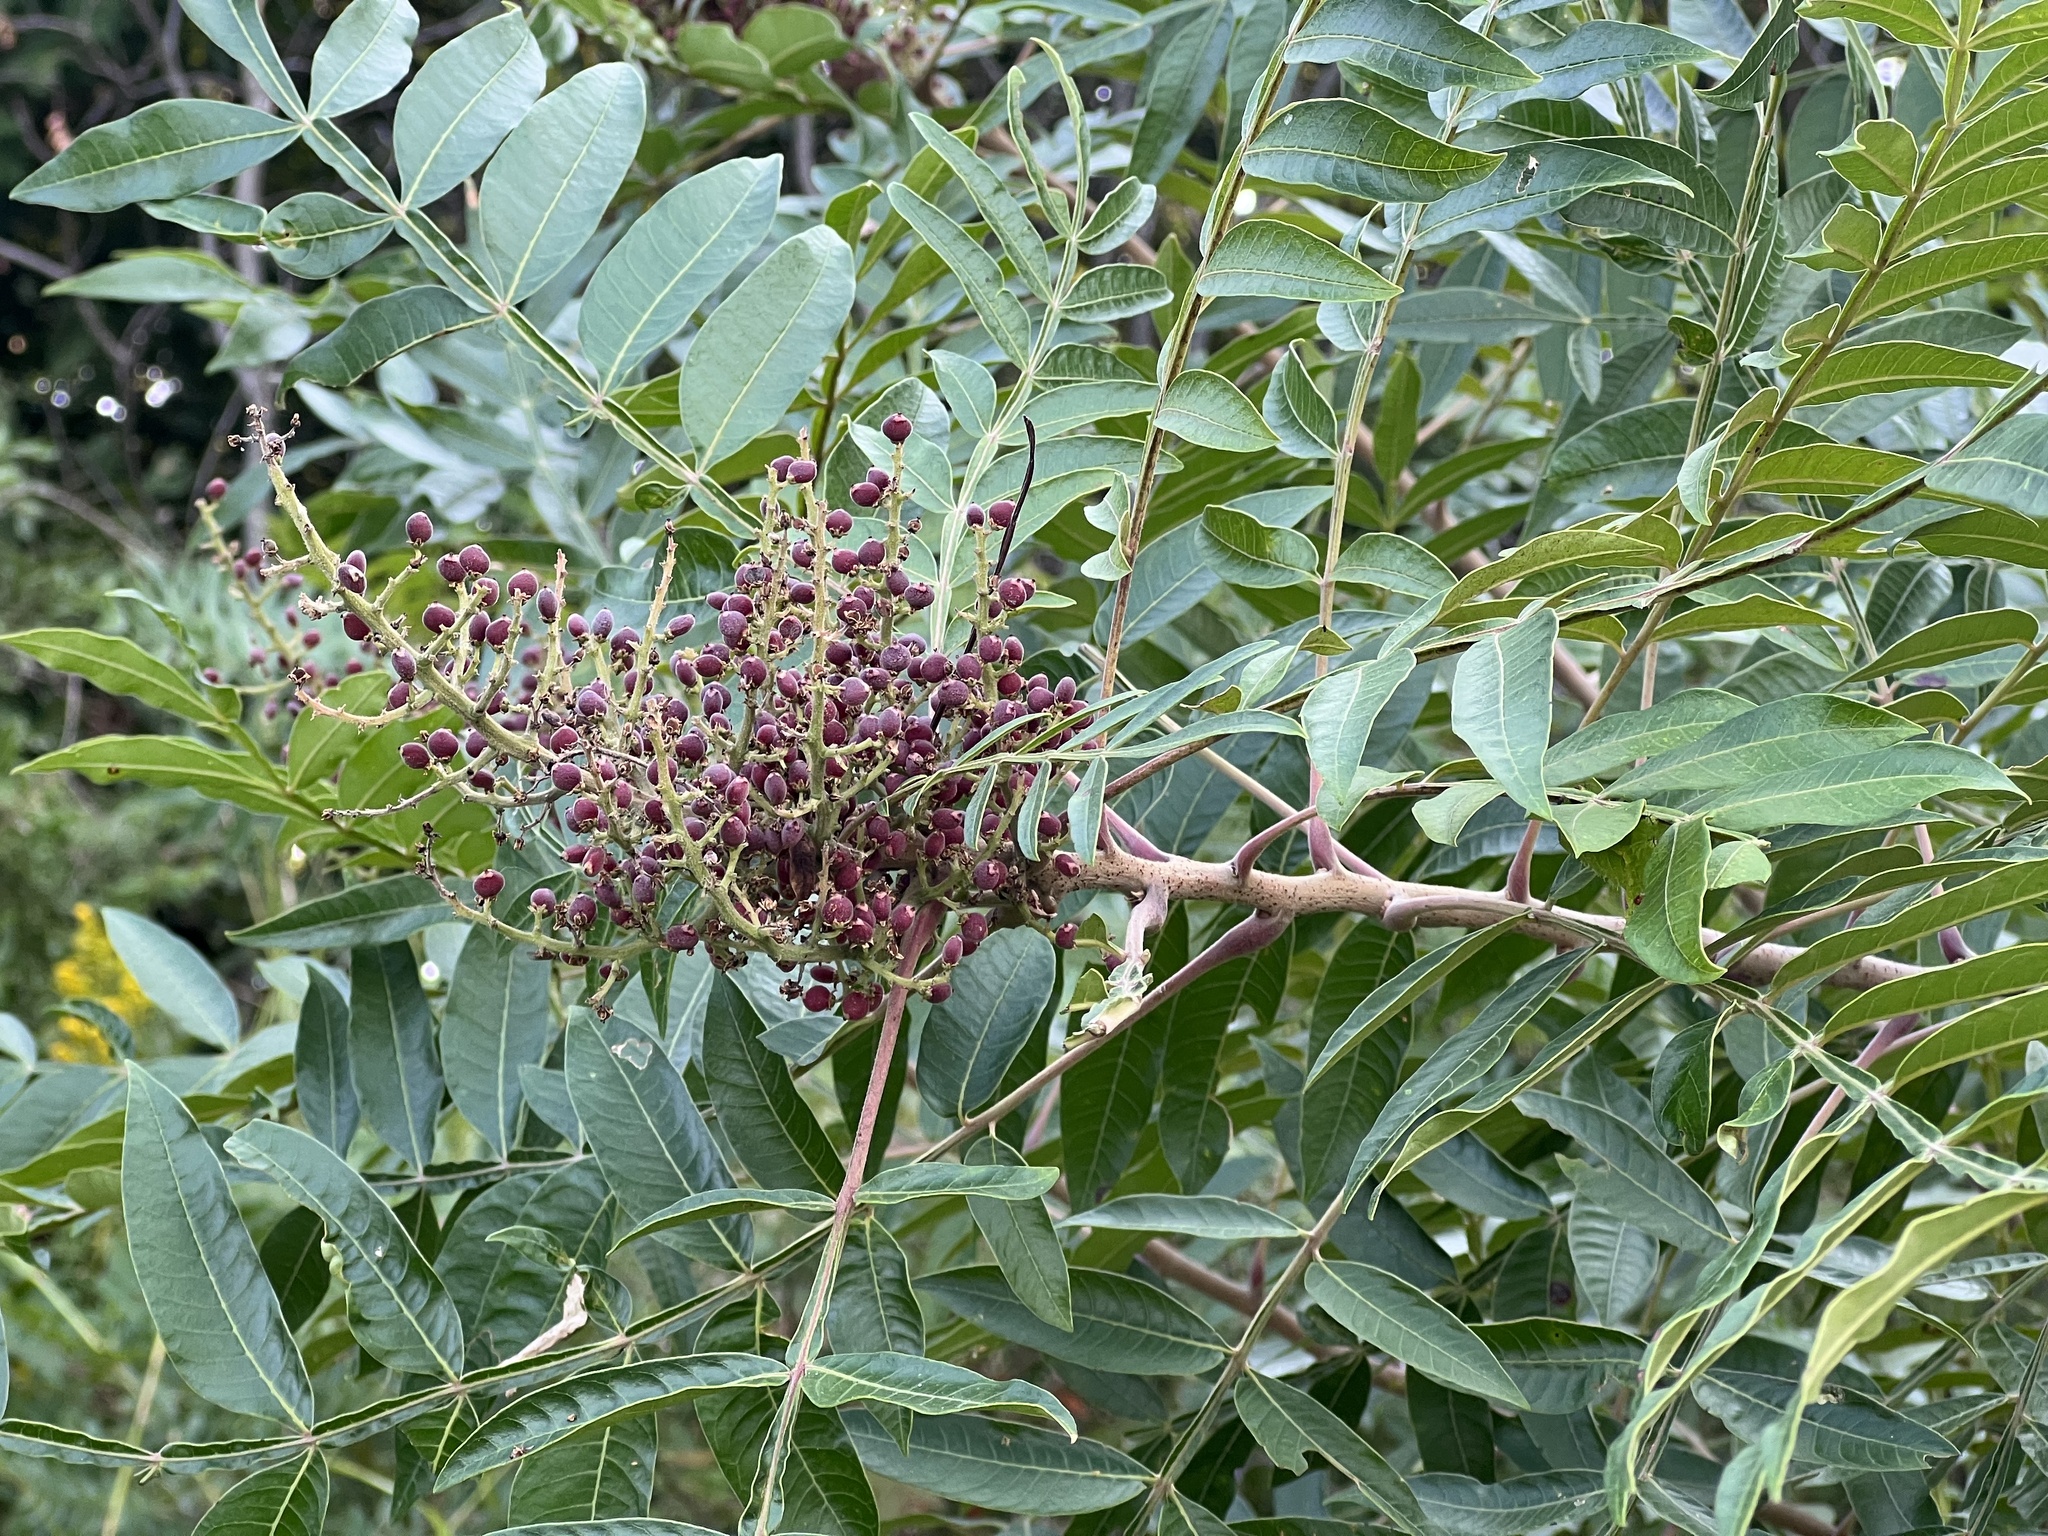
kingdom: Plantae
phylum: Tracheophyta
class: Magnoliopsida
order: Sapindales
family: Anacardiaceae
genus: Rhus
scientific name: Rhus copallina
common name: Shining sumac
